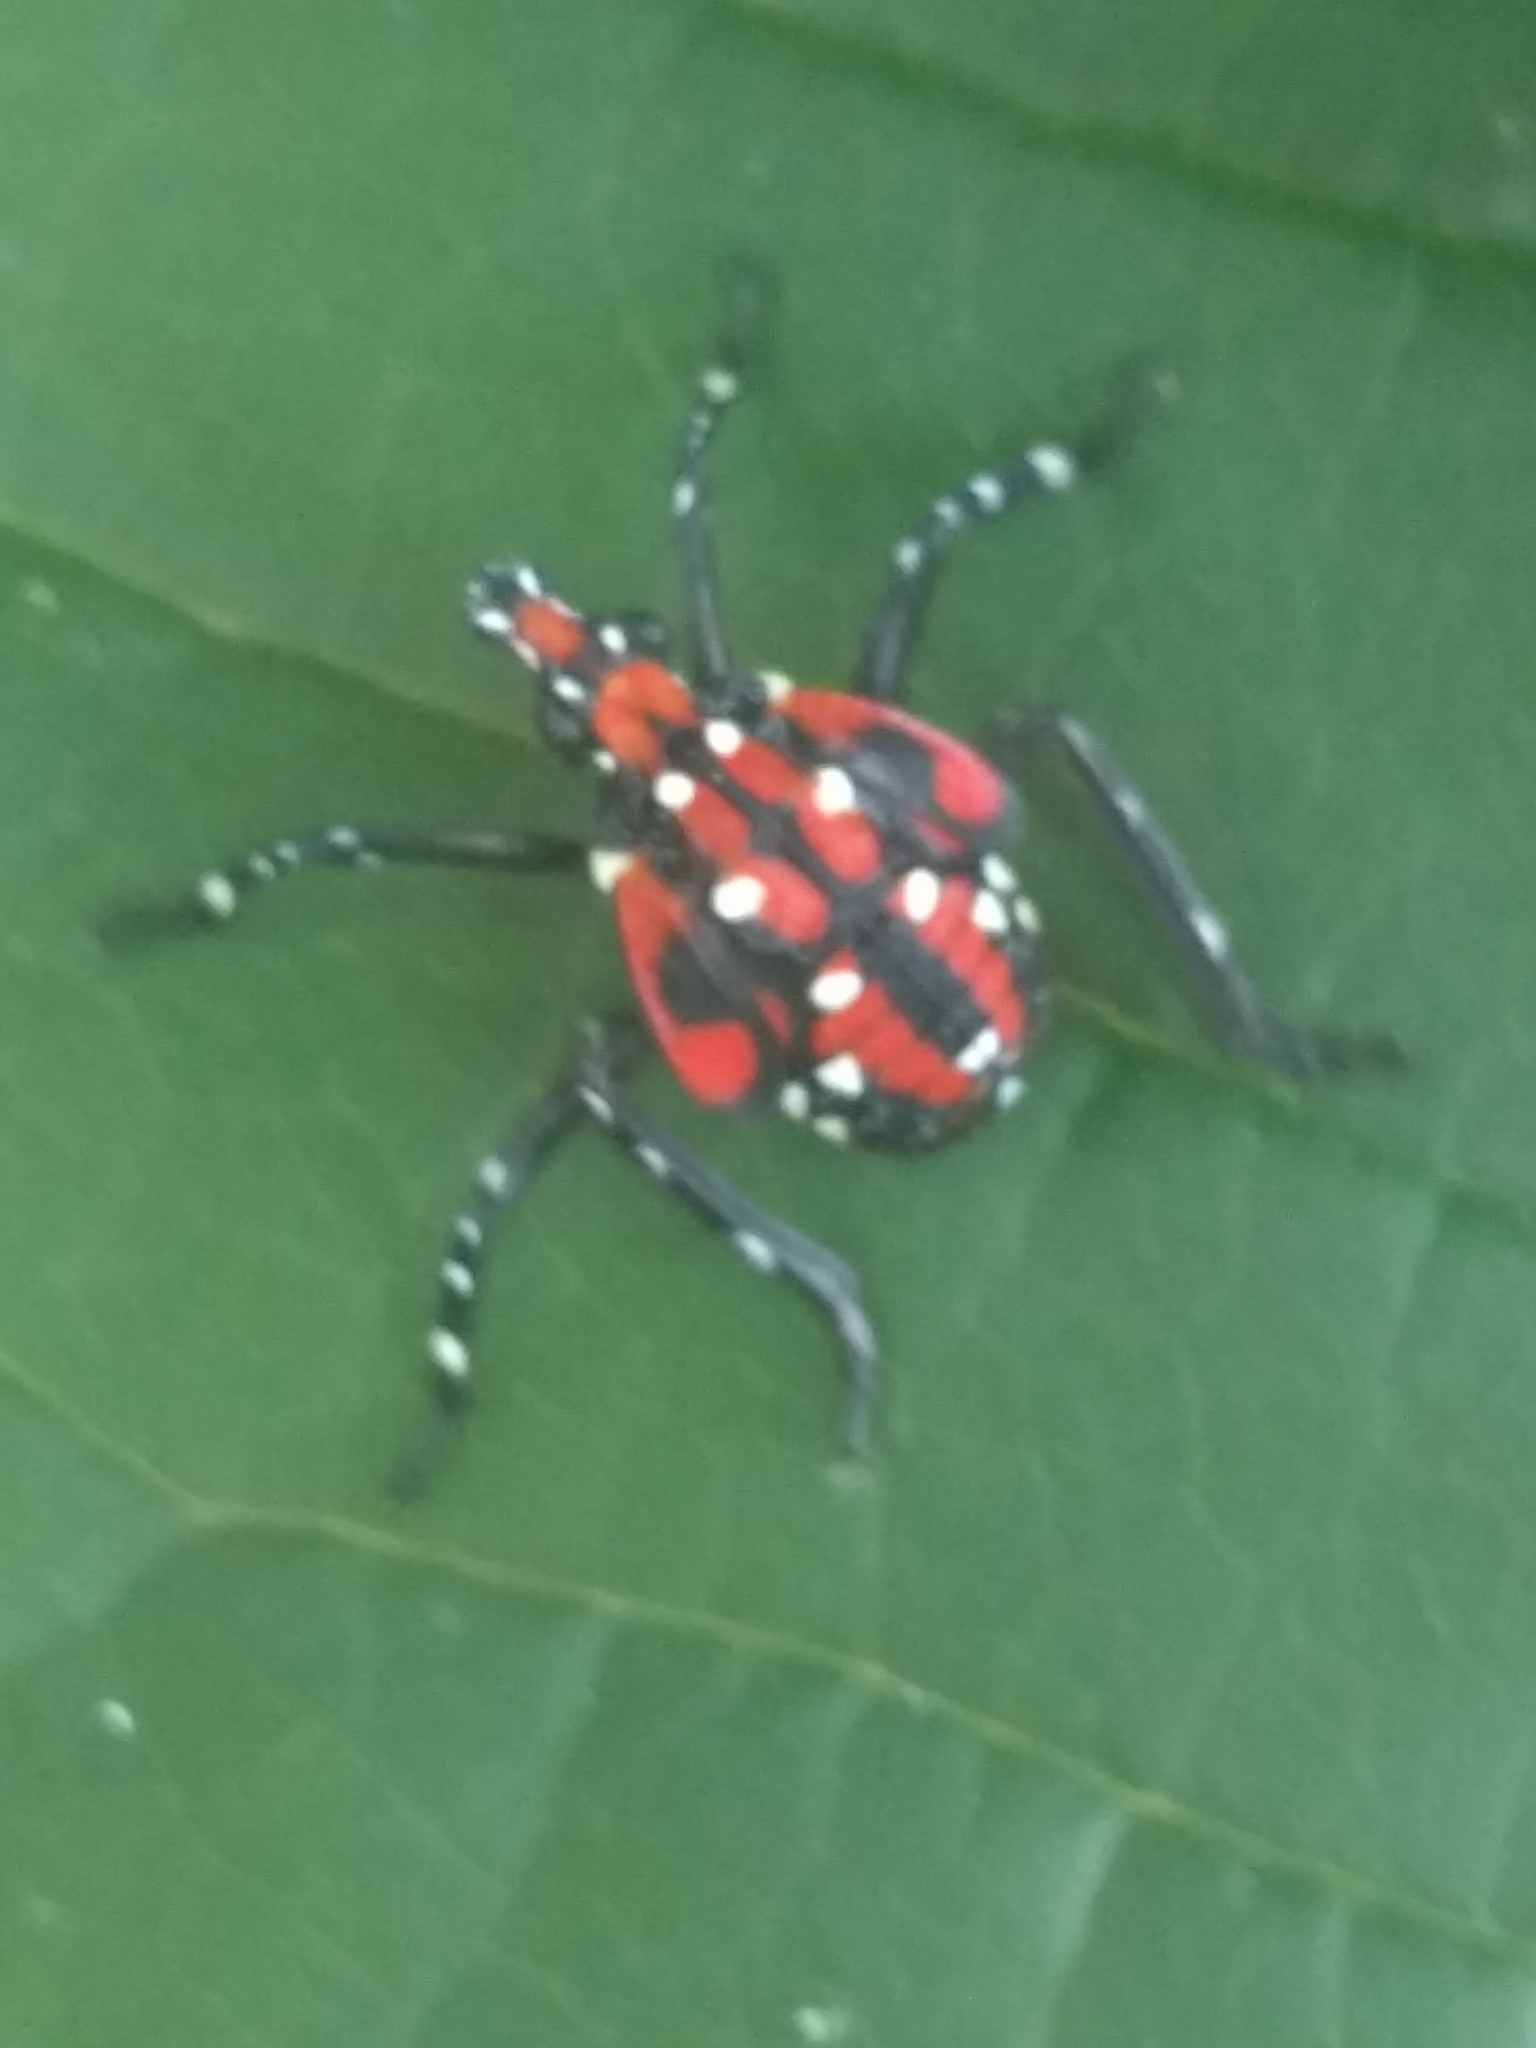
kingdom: Animalia
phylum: Arthropoda
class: Insecta
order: Hemiptera
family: Fulgoridae
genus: Lycorma
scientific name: Lycorma delicatula
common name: Spotted lanternfly
